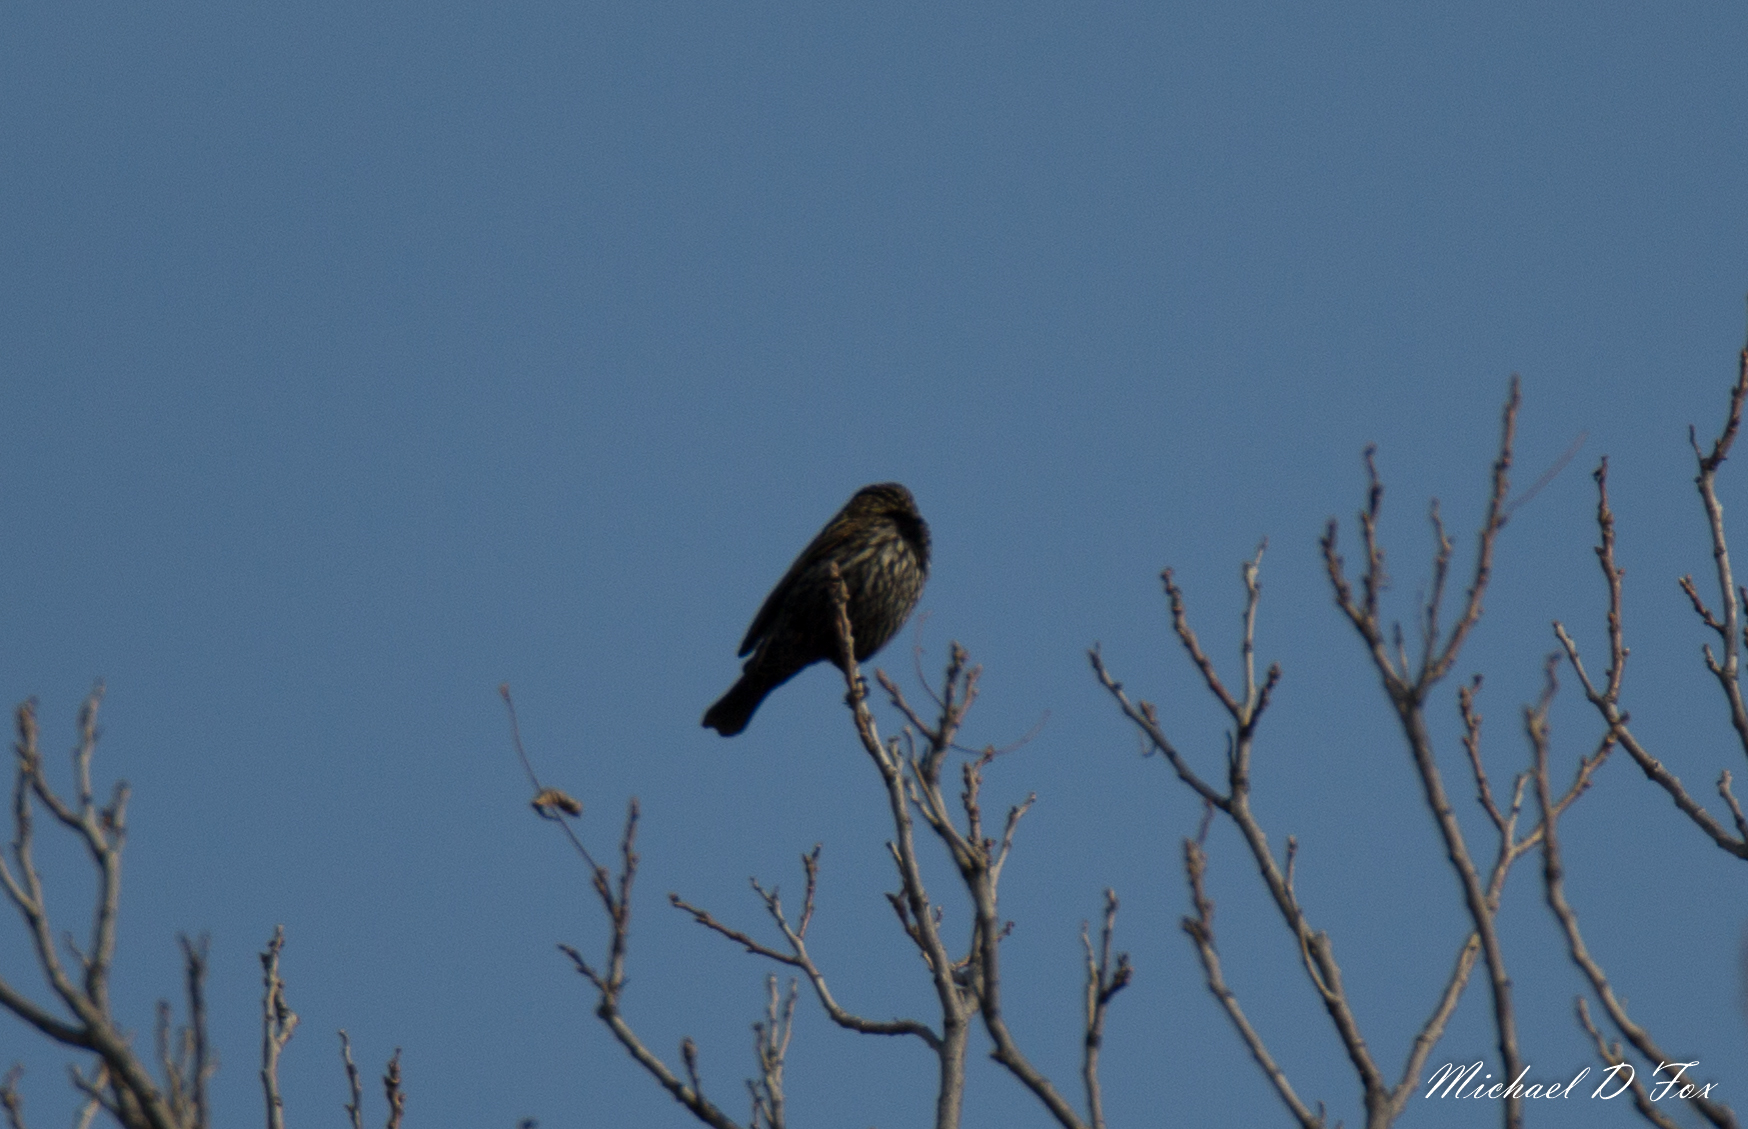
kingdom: Animalia
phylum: Chordata
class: Aves
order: Passeriformes
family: Icteridae
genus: Agelaius
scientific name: Agelaius phoeniceus
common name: Red-winged blackbird
